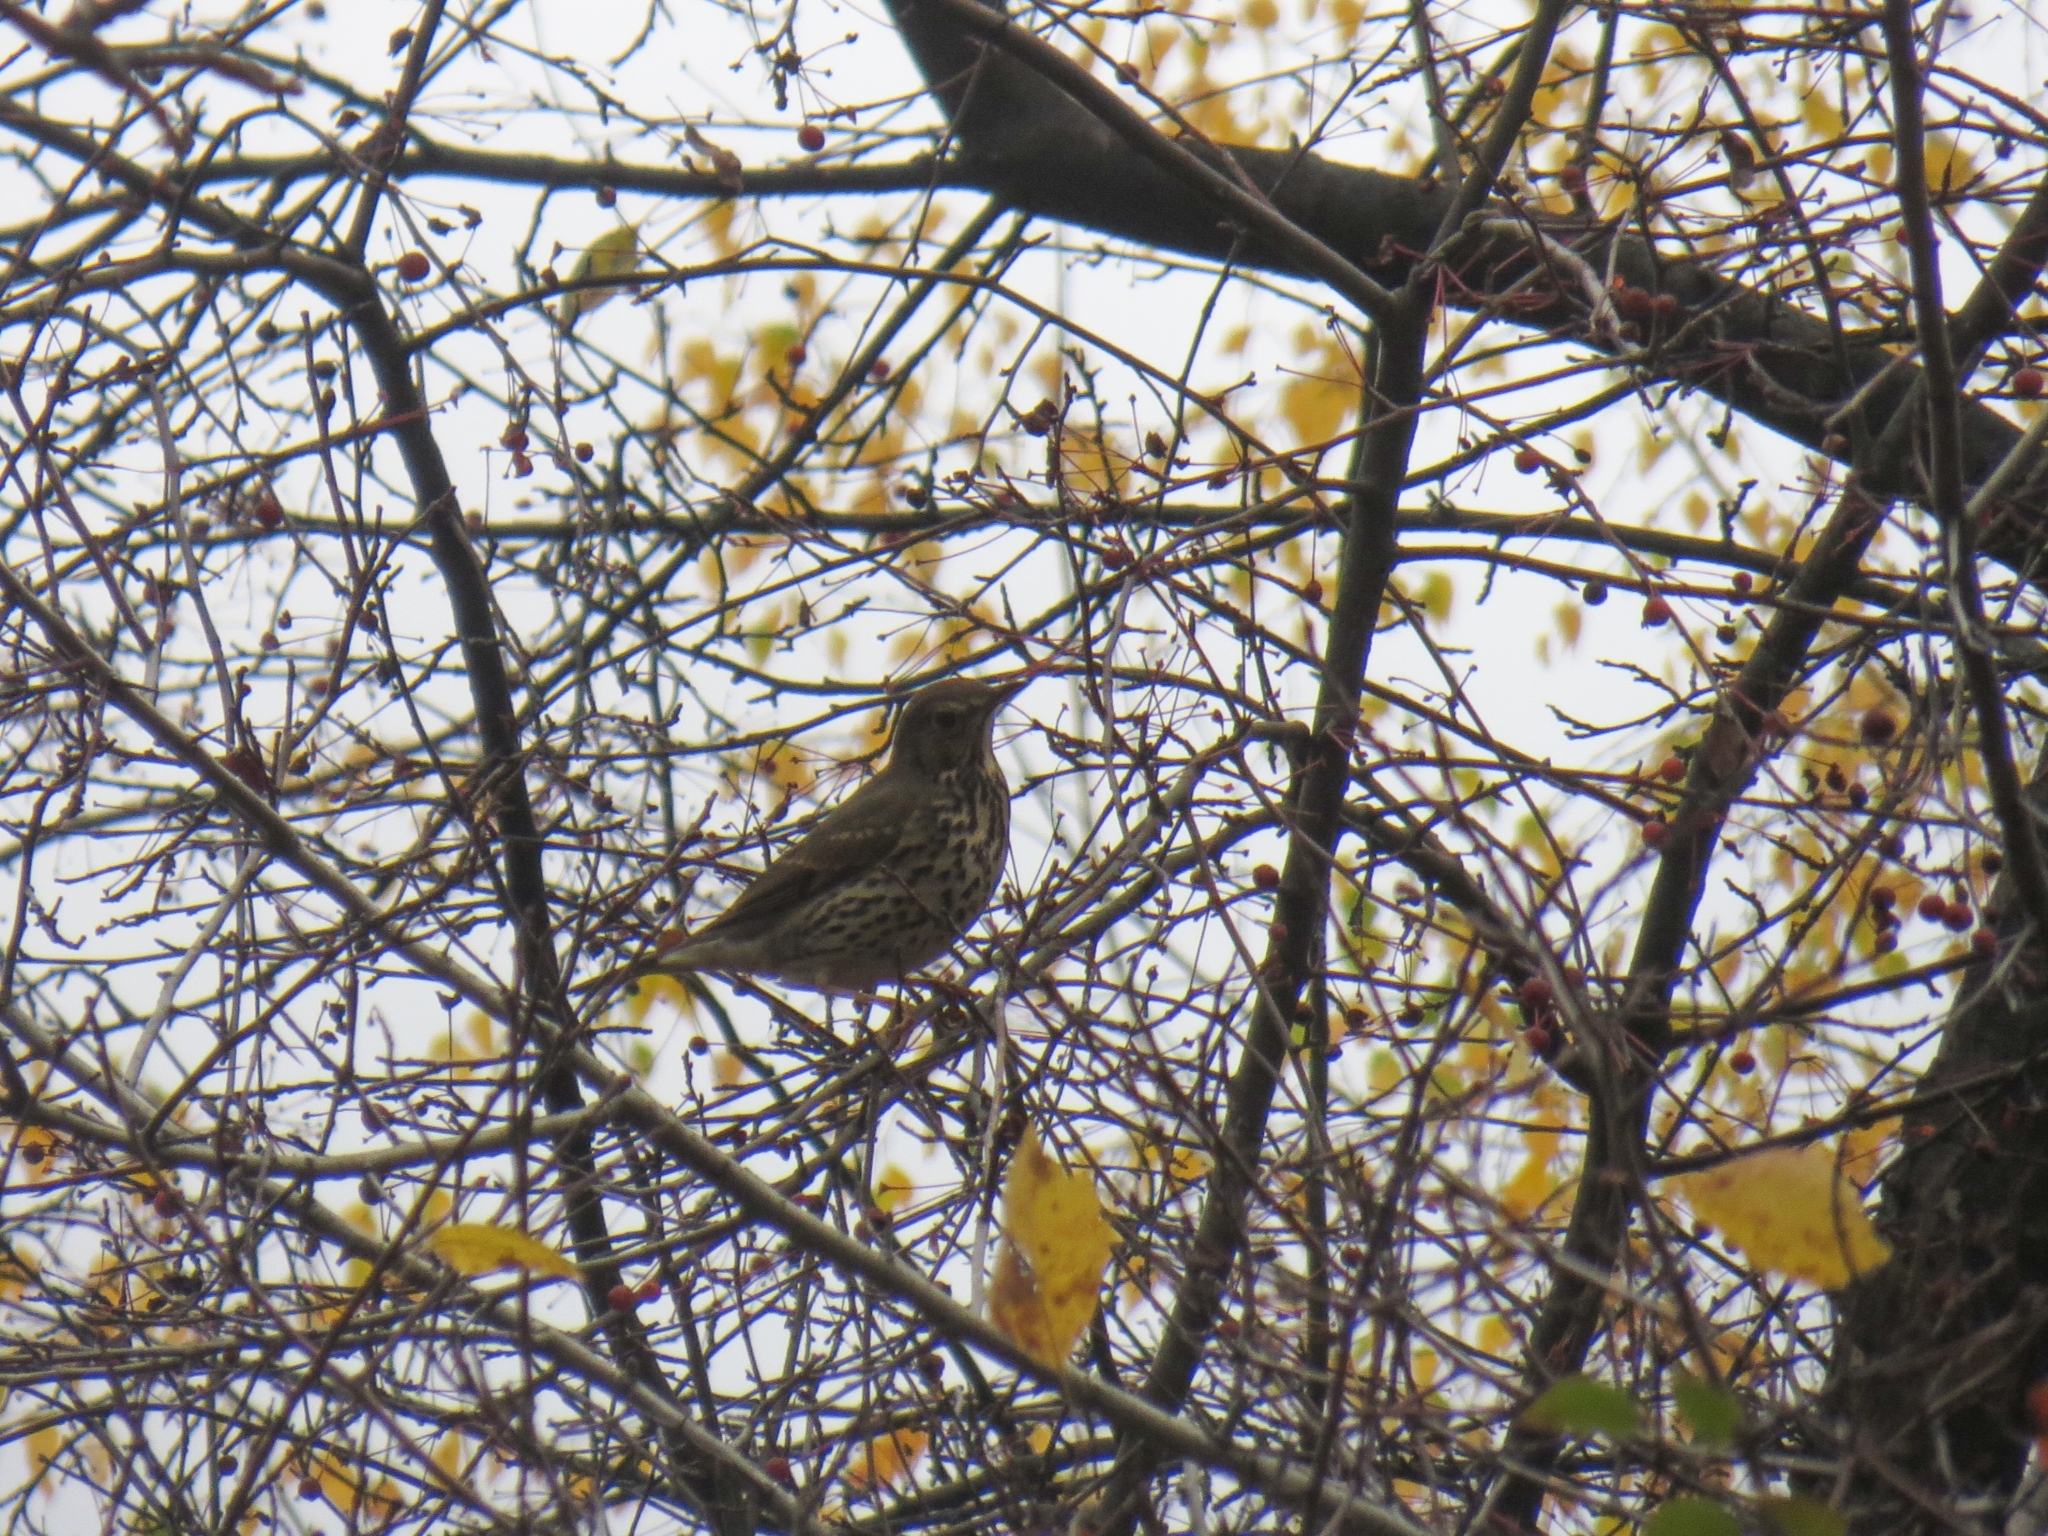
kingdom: Animalia
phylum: Chordata
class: Aves
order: Passeriformes
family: Turdidae
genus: Turdus
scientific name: Turdus philomelos
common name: Song thrush
